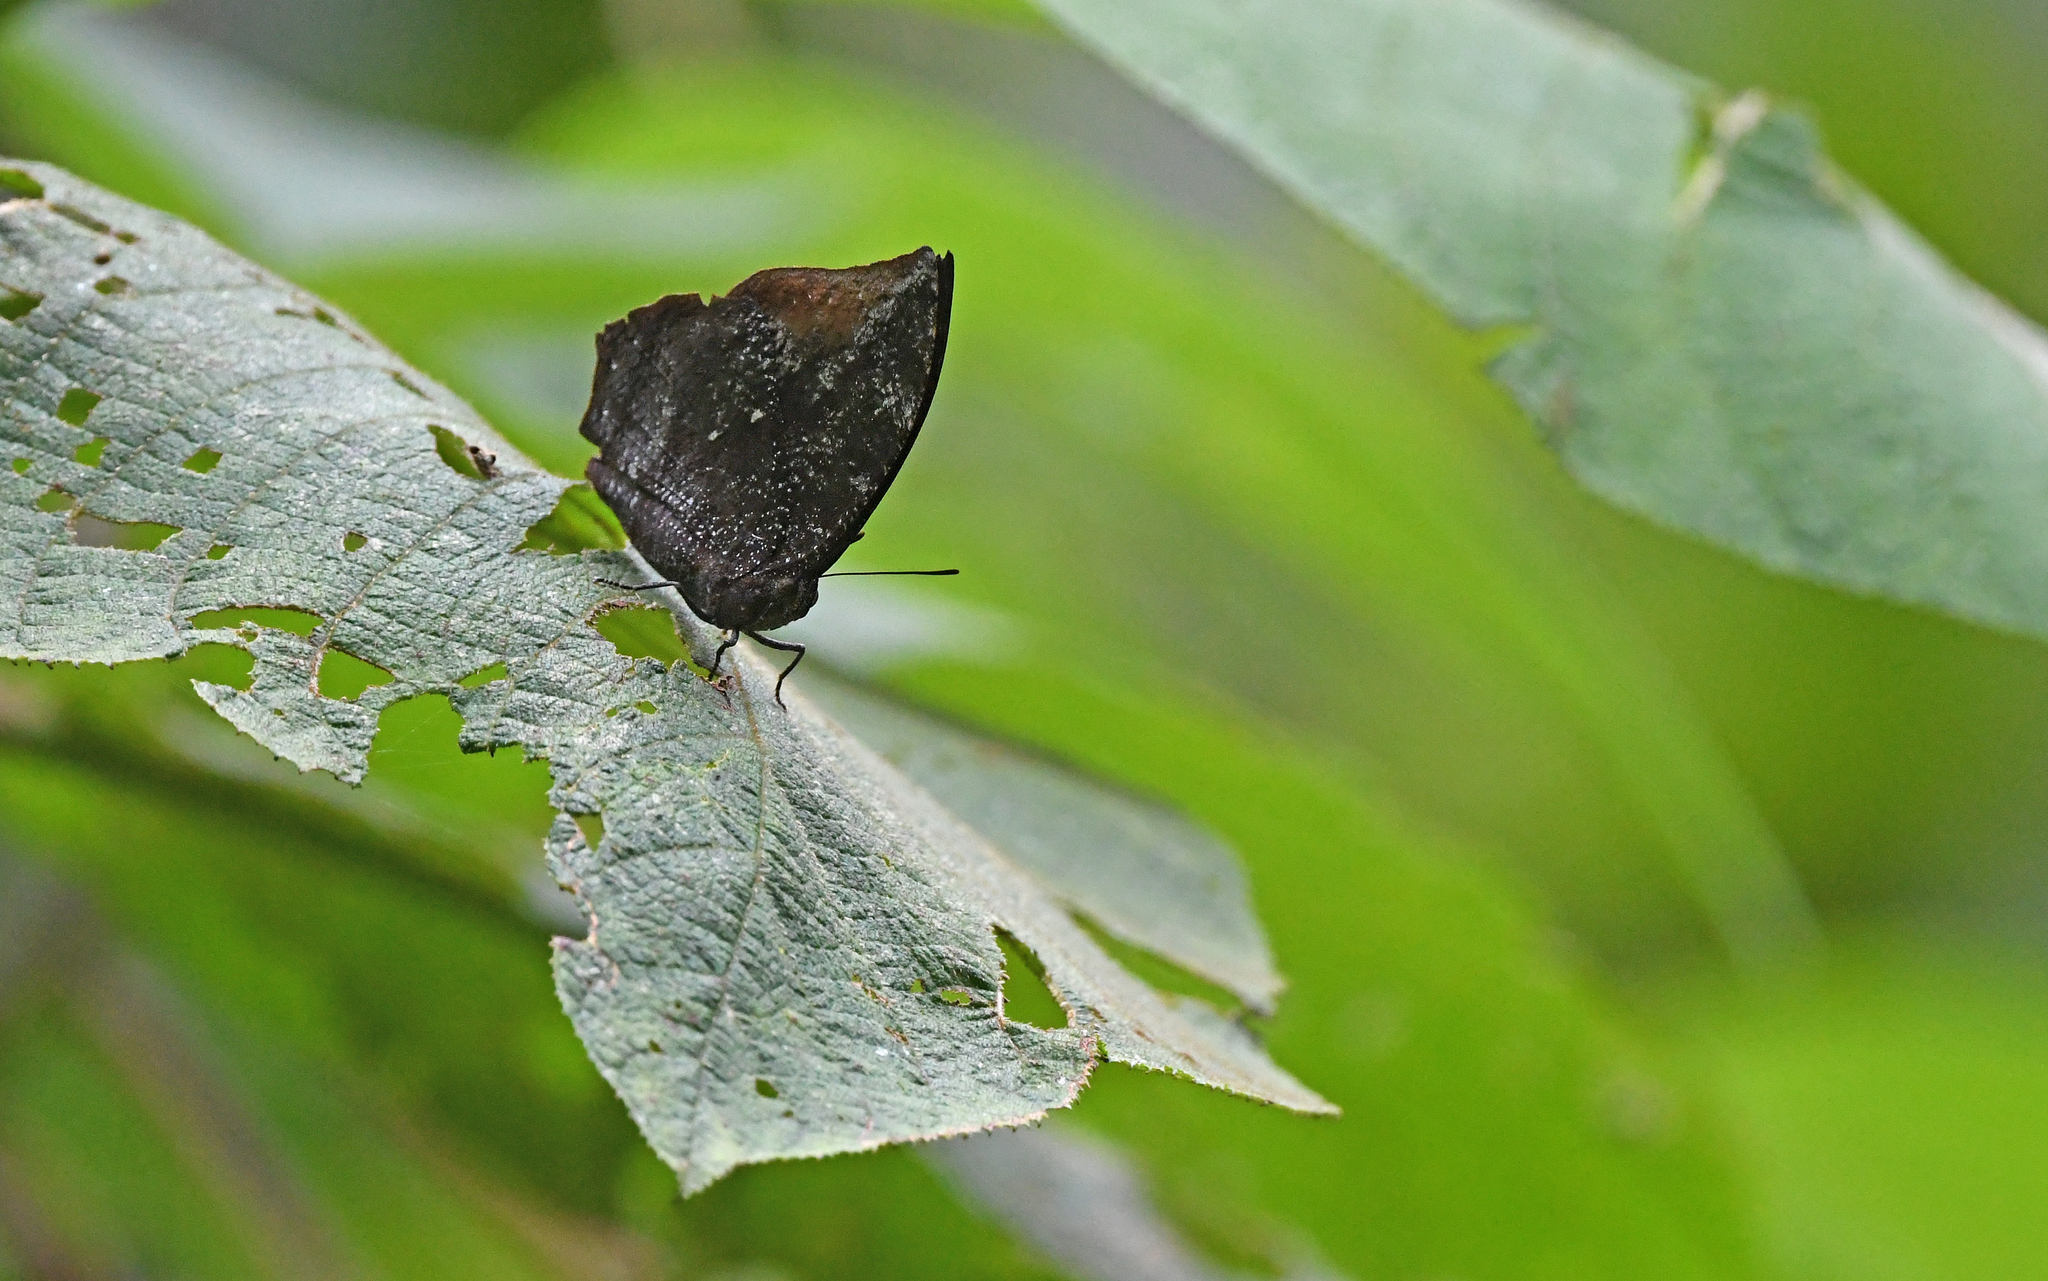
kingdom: Animalia
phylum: Arthropoda
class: Insecta
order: Lepidoptera
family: Nymphalidae
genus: Memphis
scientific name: Memphis morvus
